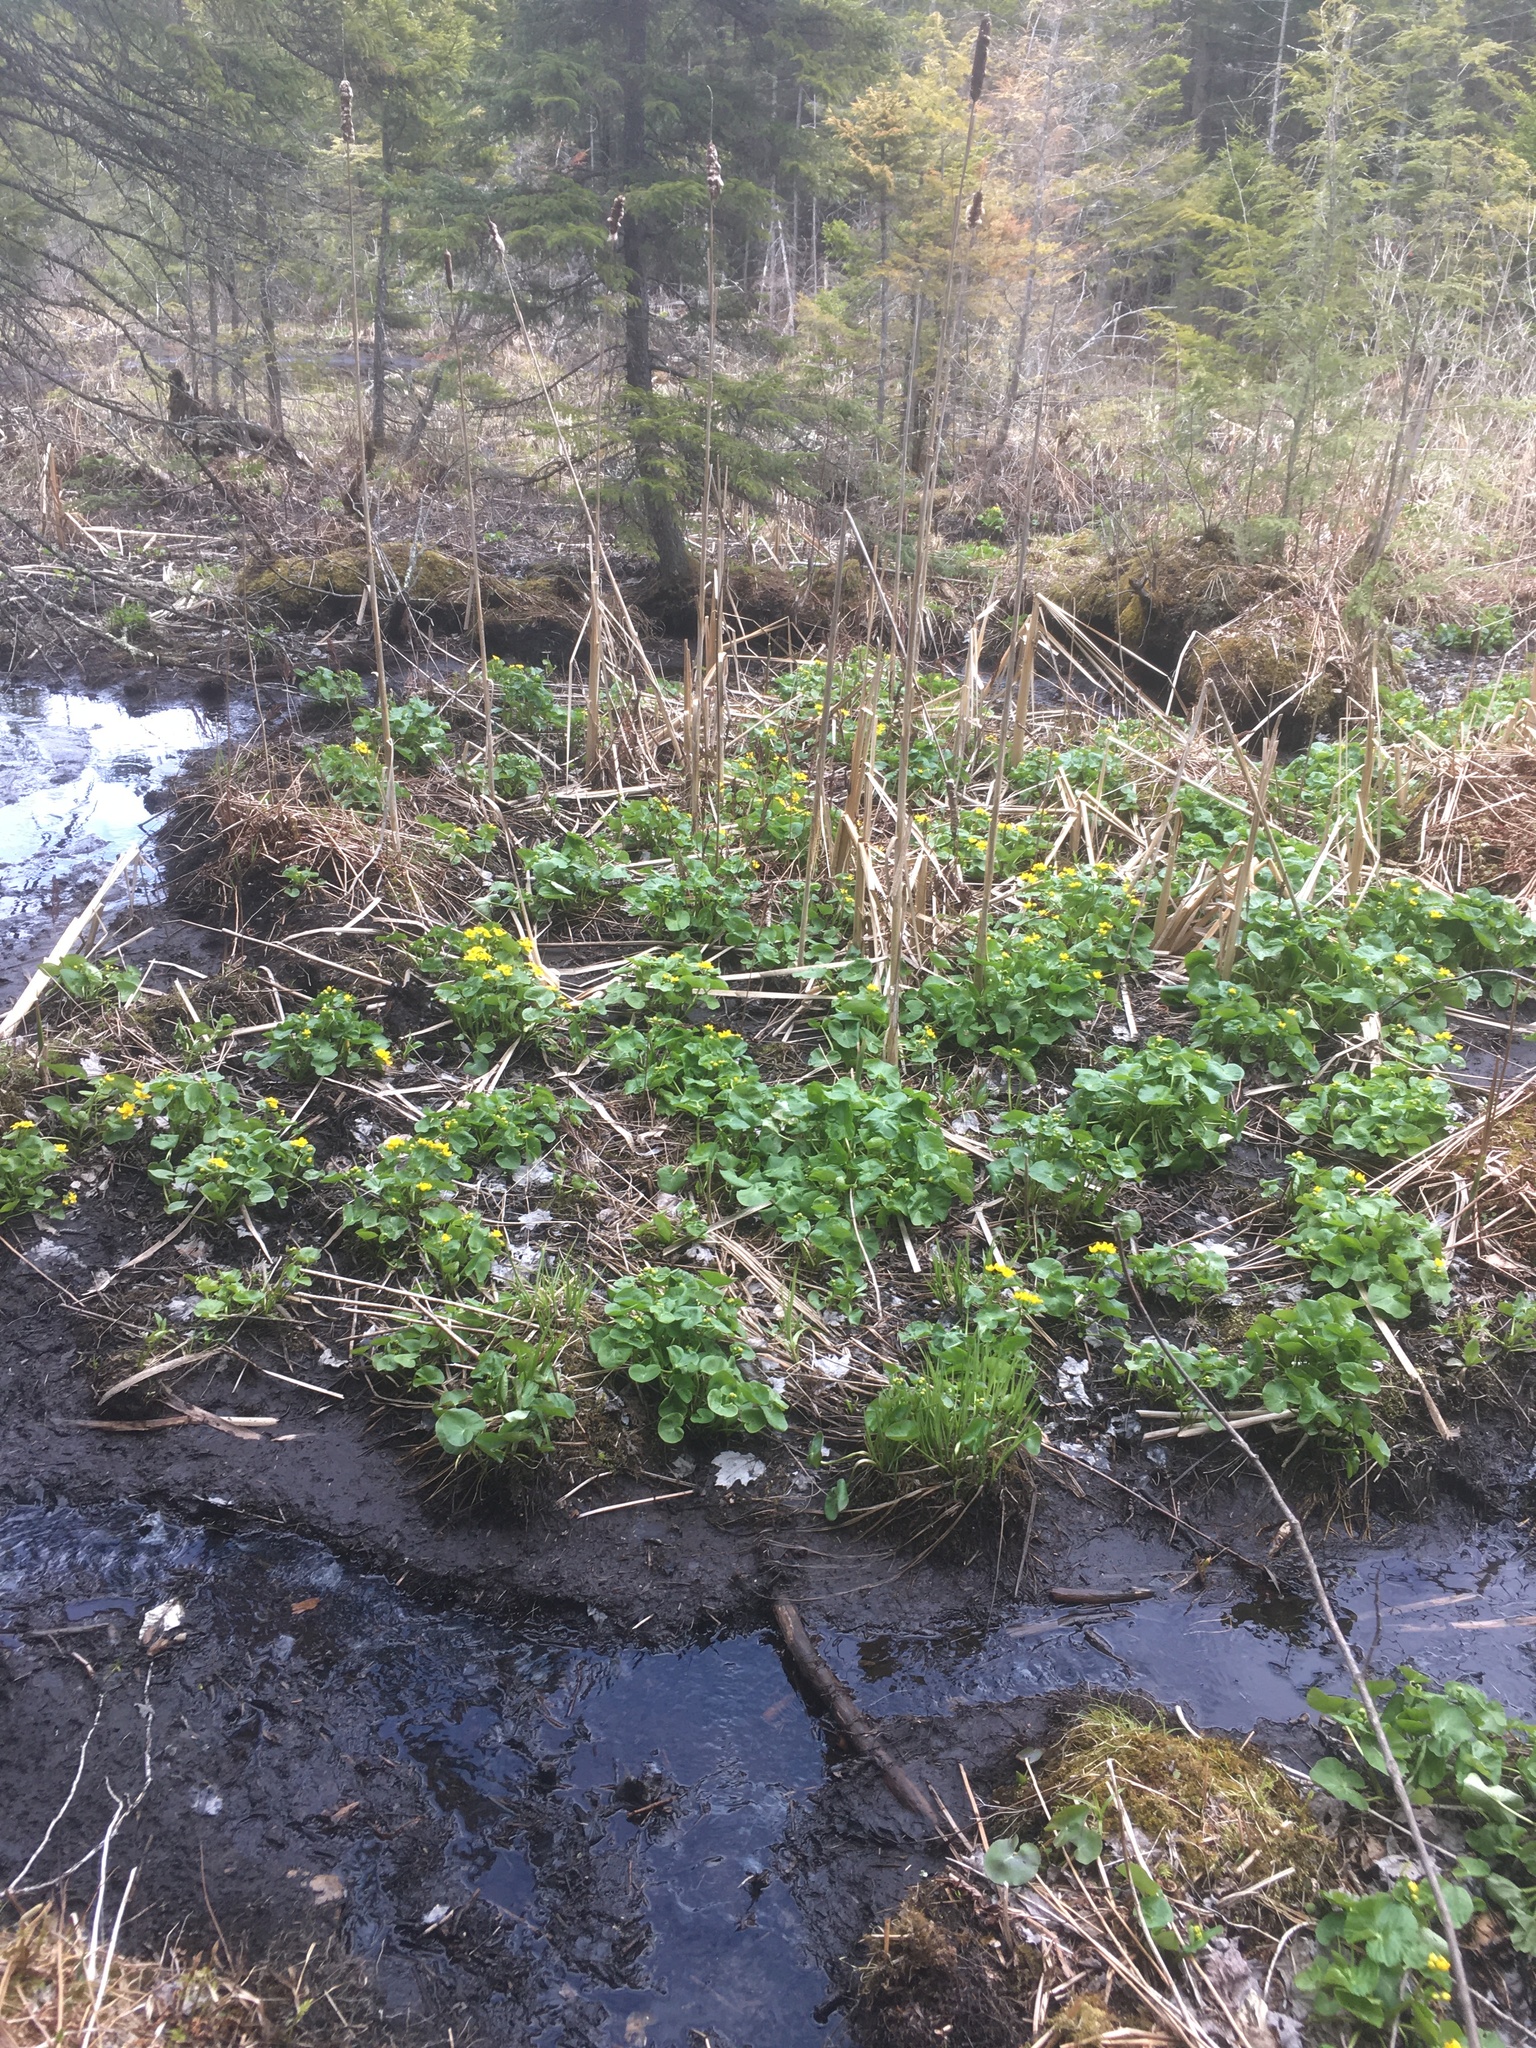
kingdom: Plantae
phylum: Tracheophyta
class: Magnoliopsida
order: Ranunculales
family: Ranunculaceae
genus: Caltha
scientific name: Caltha palustris
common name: Marsh marigold
